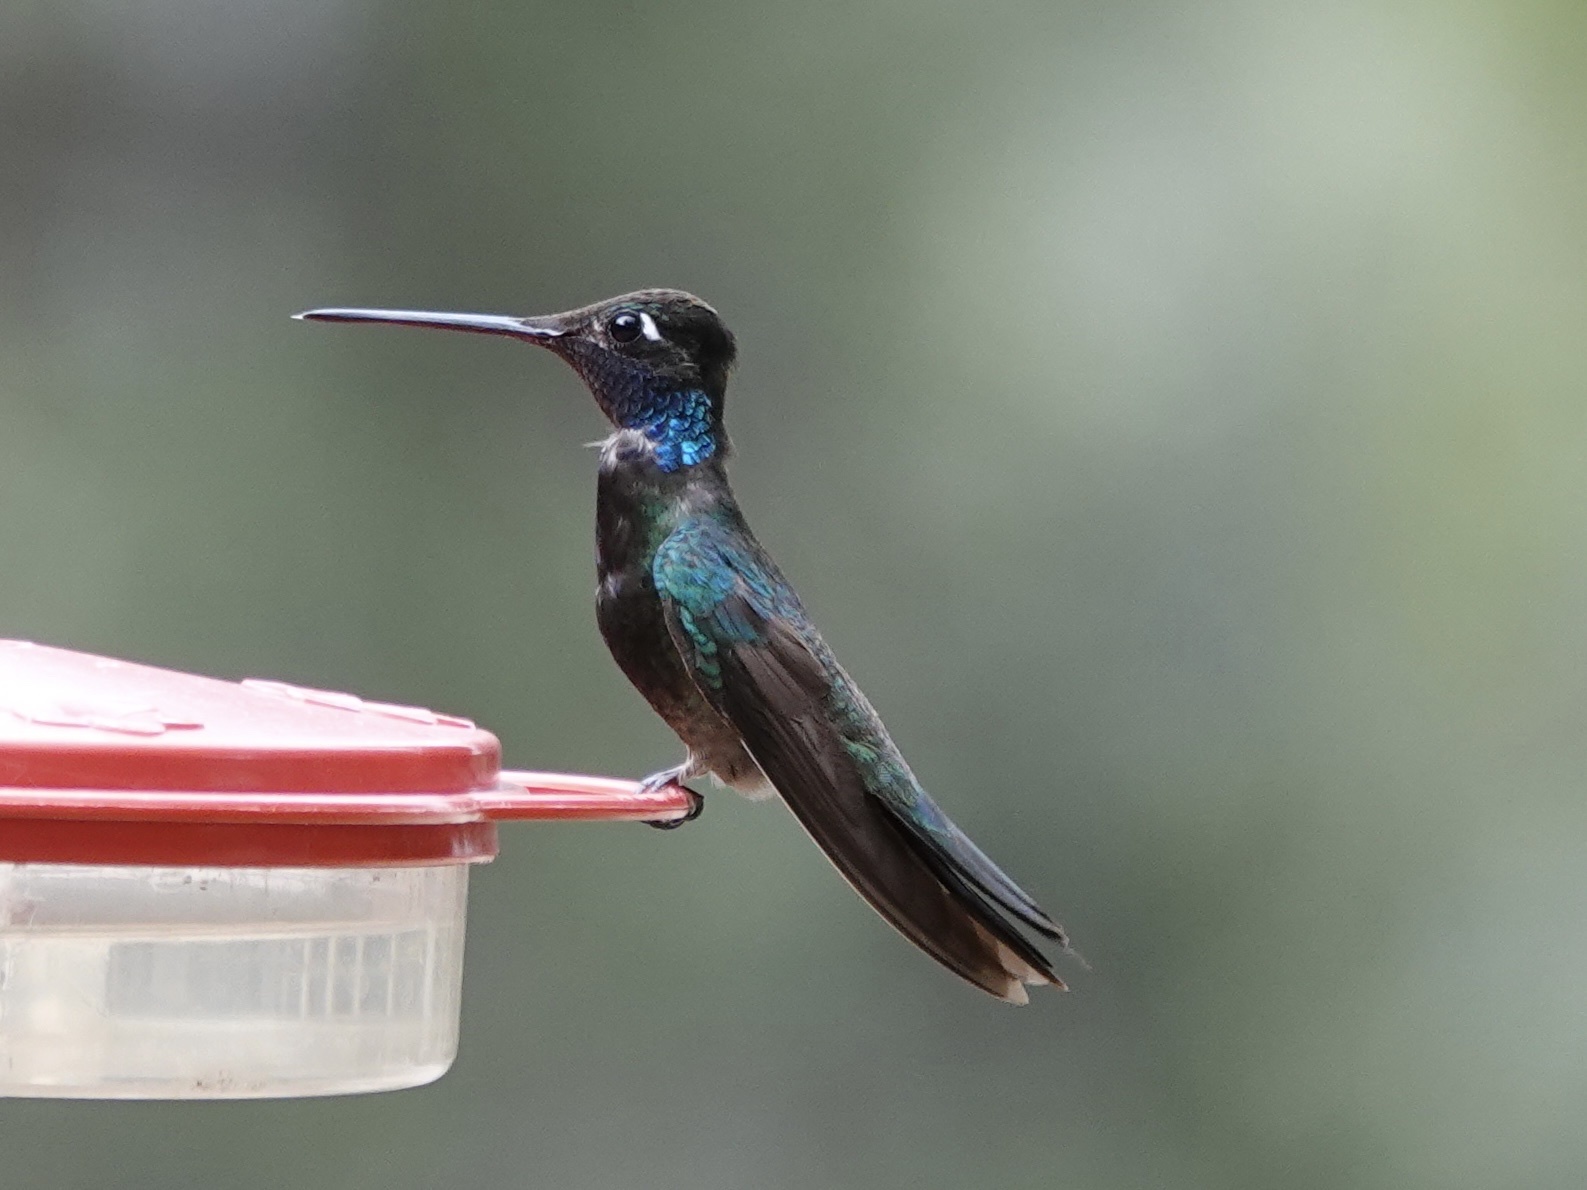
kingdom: Animalia
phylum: Chordata
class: Aves
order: Apodiformes
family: Trochilidae
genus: Eugenes
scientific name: Eugenes fulgens
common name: Magnificent hummingbird
